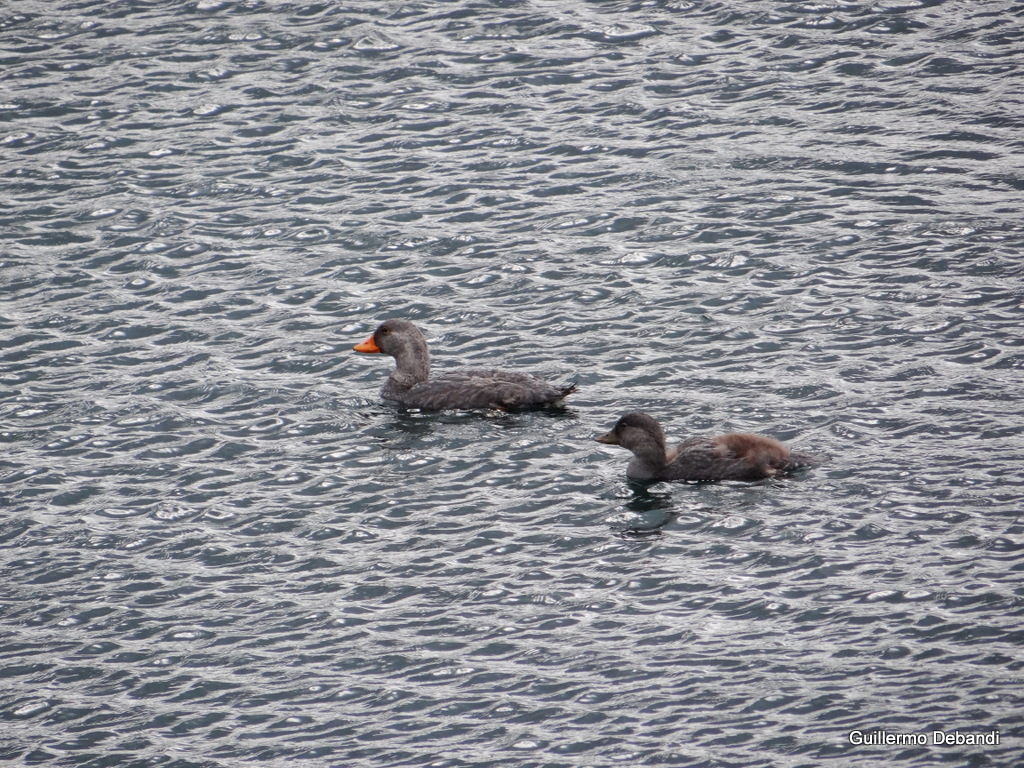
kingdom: Animalia
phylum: Chordata
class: Aves
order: Anseriformes
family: Anatidae
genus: Tachyeres
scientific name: Tachyeres patachonicus
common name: Flying steamer duck
